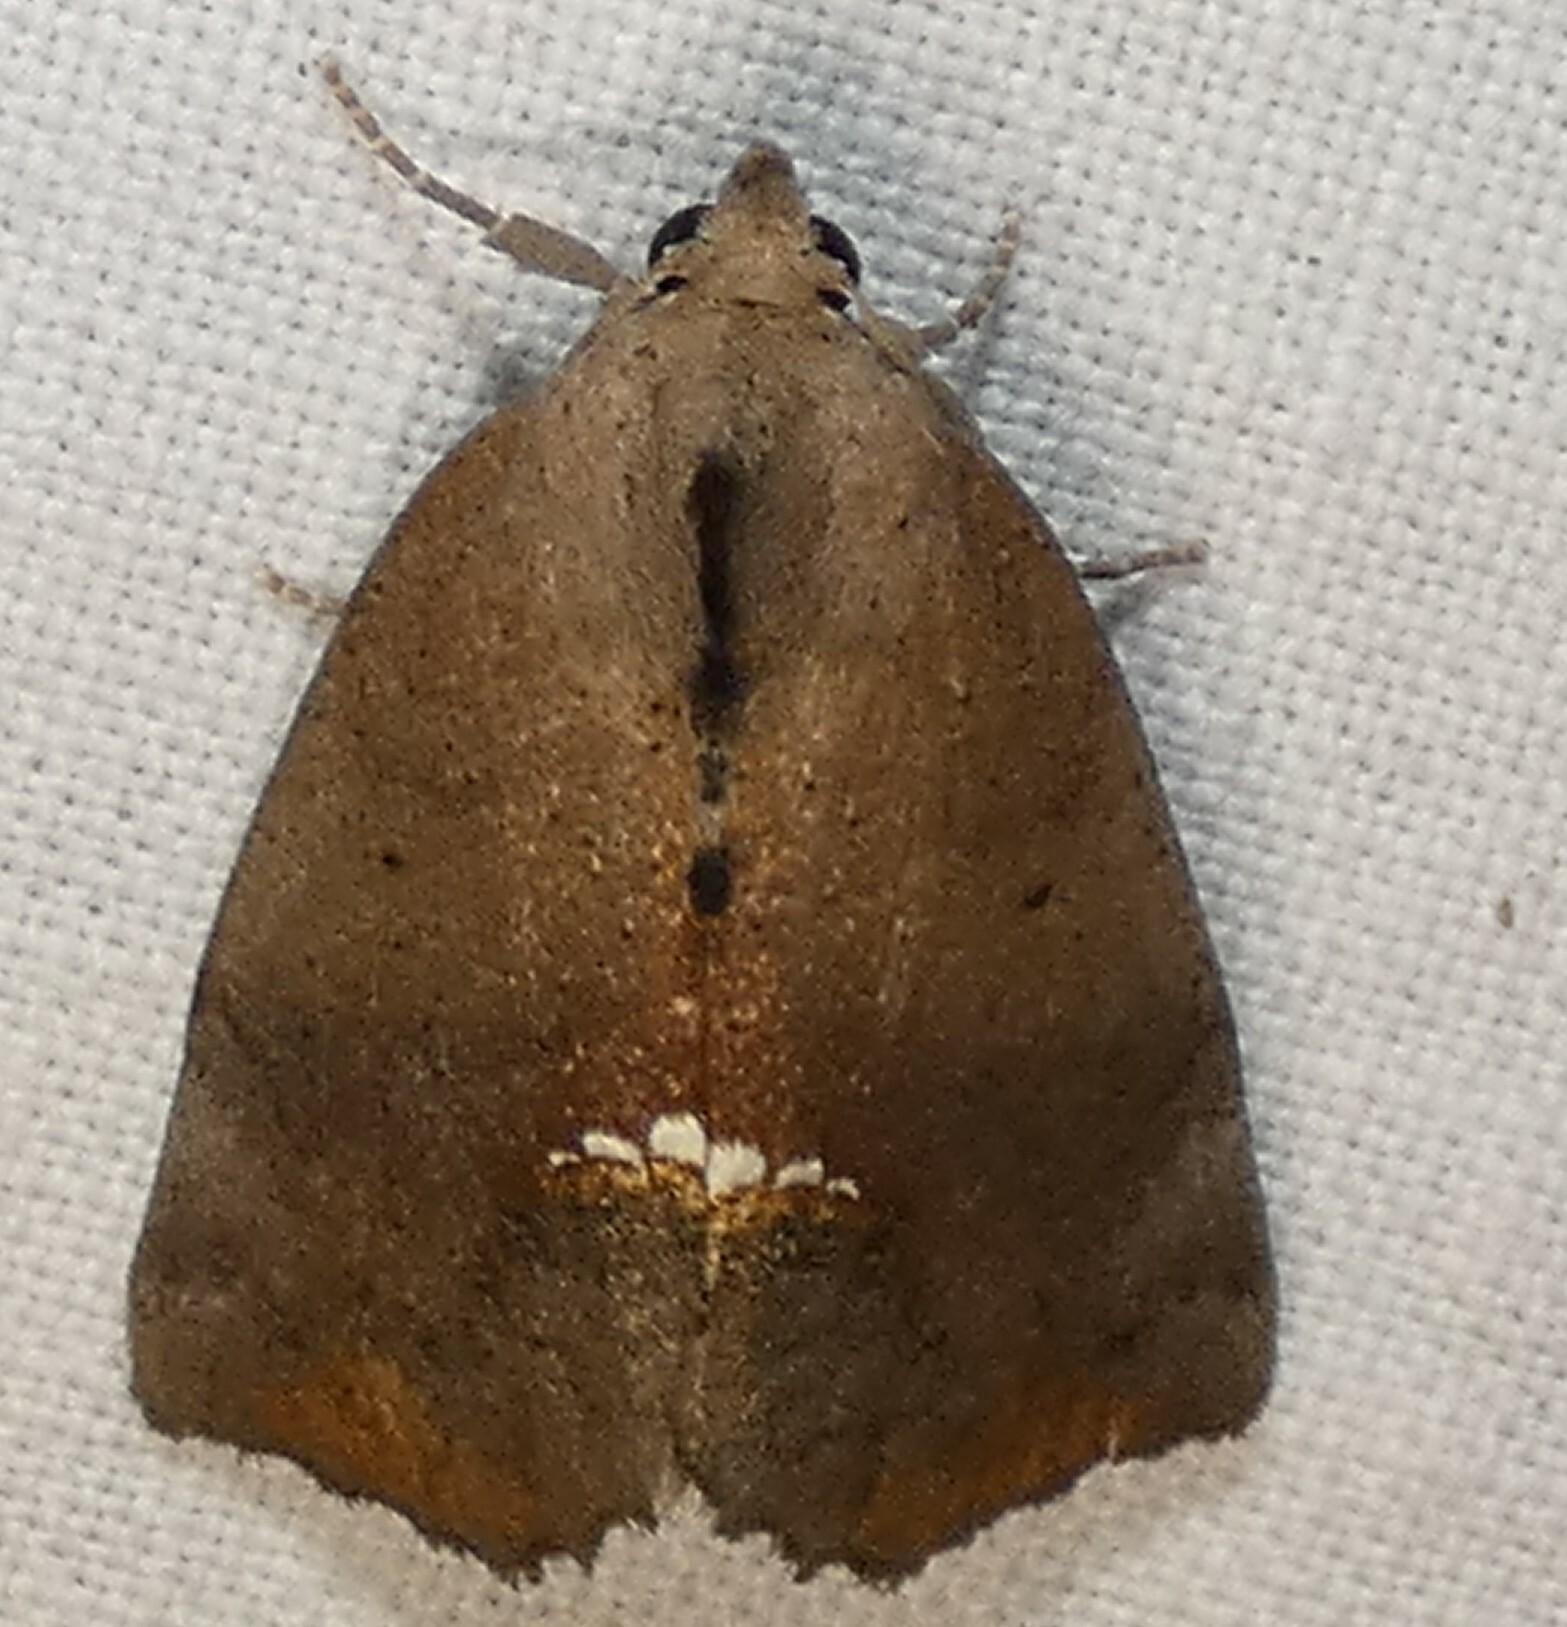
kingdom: Animalia
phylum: Arthropoda
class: Insecta
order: Lepidoptera
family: Erebidae
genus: Hypsoropha
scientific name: Hypsoropha hormos
